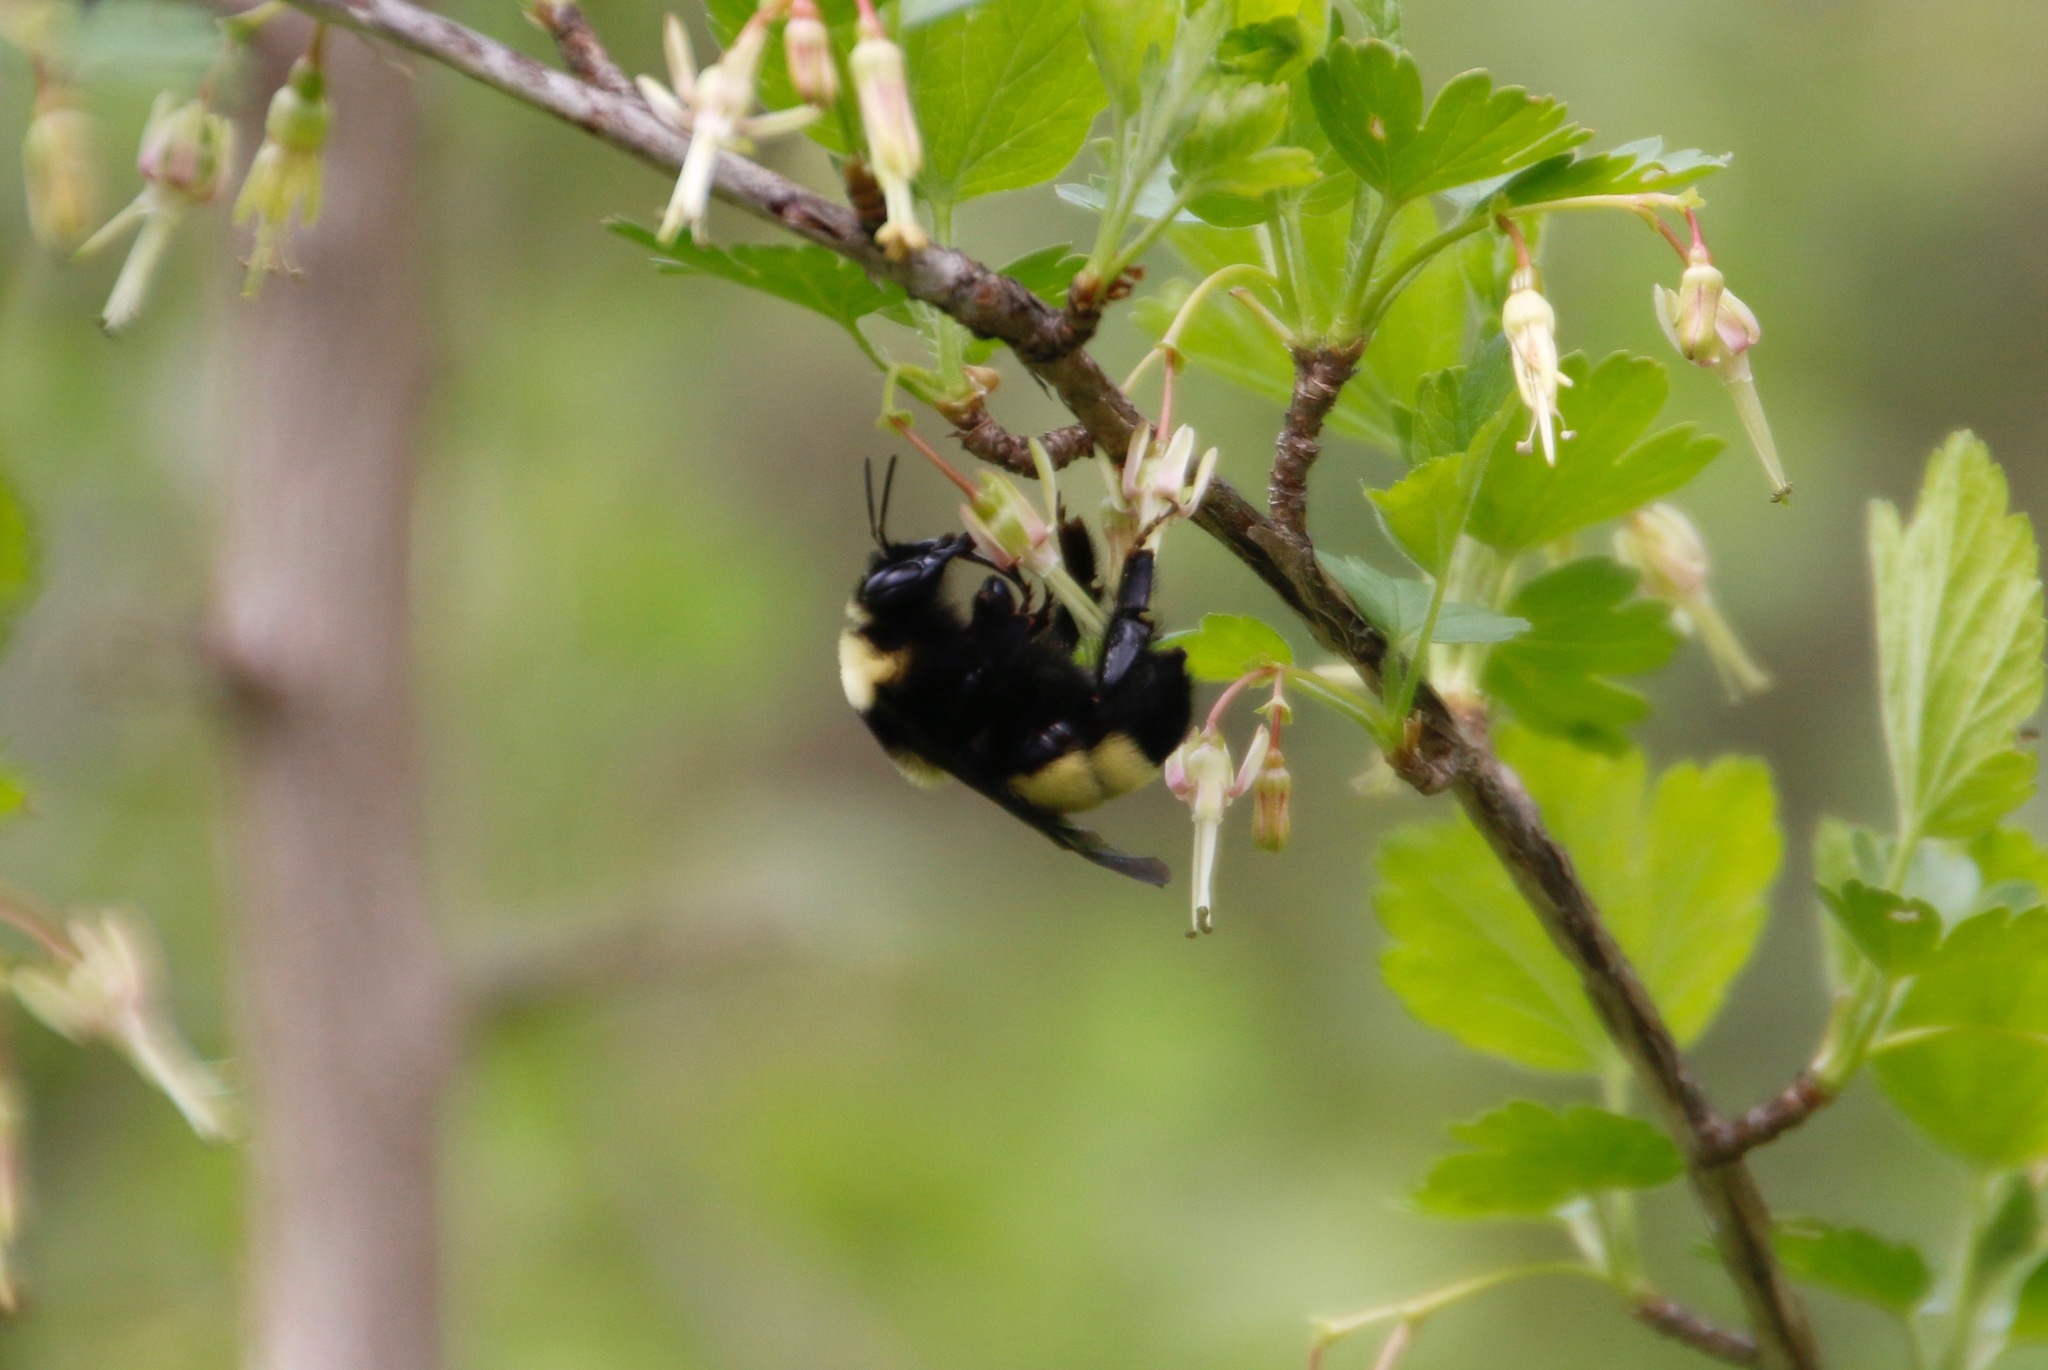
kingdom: Animalia
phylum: Arthropoda
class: Insecta
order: Hymenoptera
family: Apidae
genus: Bombus
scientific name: Bombus auricomus
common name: Black and gold bumble bee
